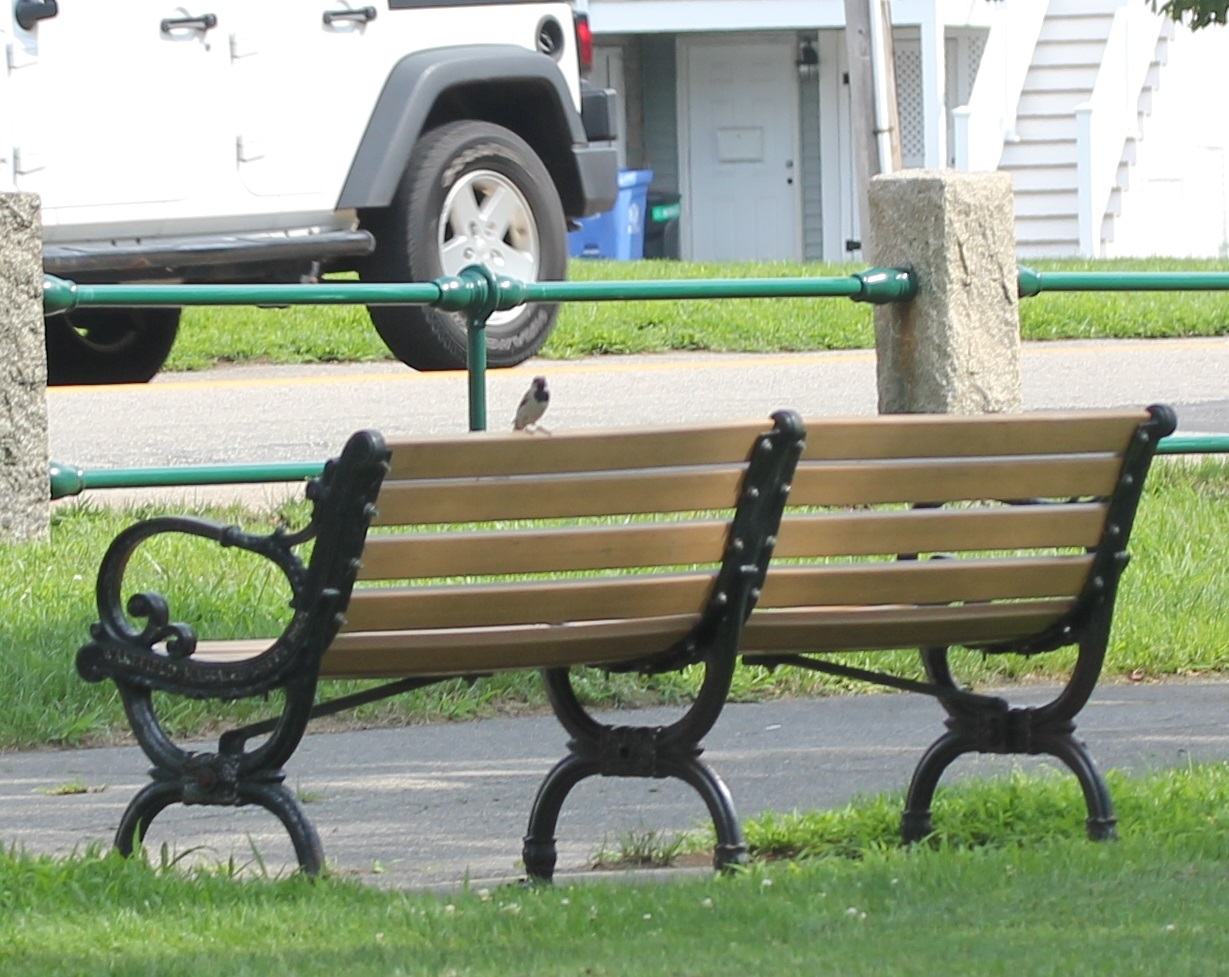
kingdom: Animalia
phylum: Chordata
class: Aves
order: Passeriformes
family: Passeridae
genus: Passer
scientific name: Passer domesticus
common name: House sparrow
